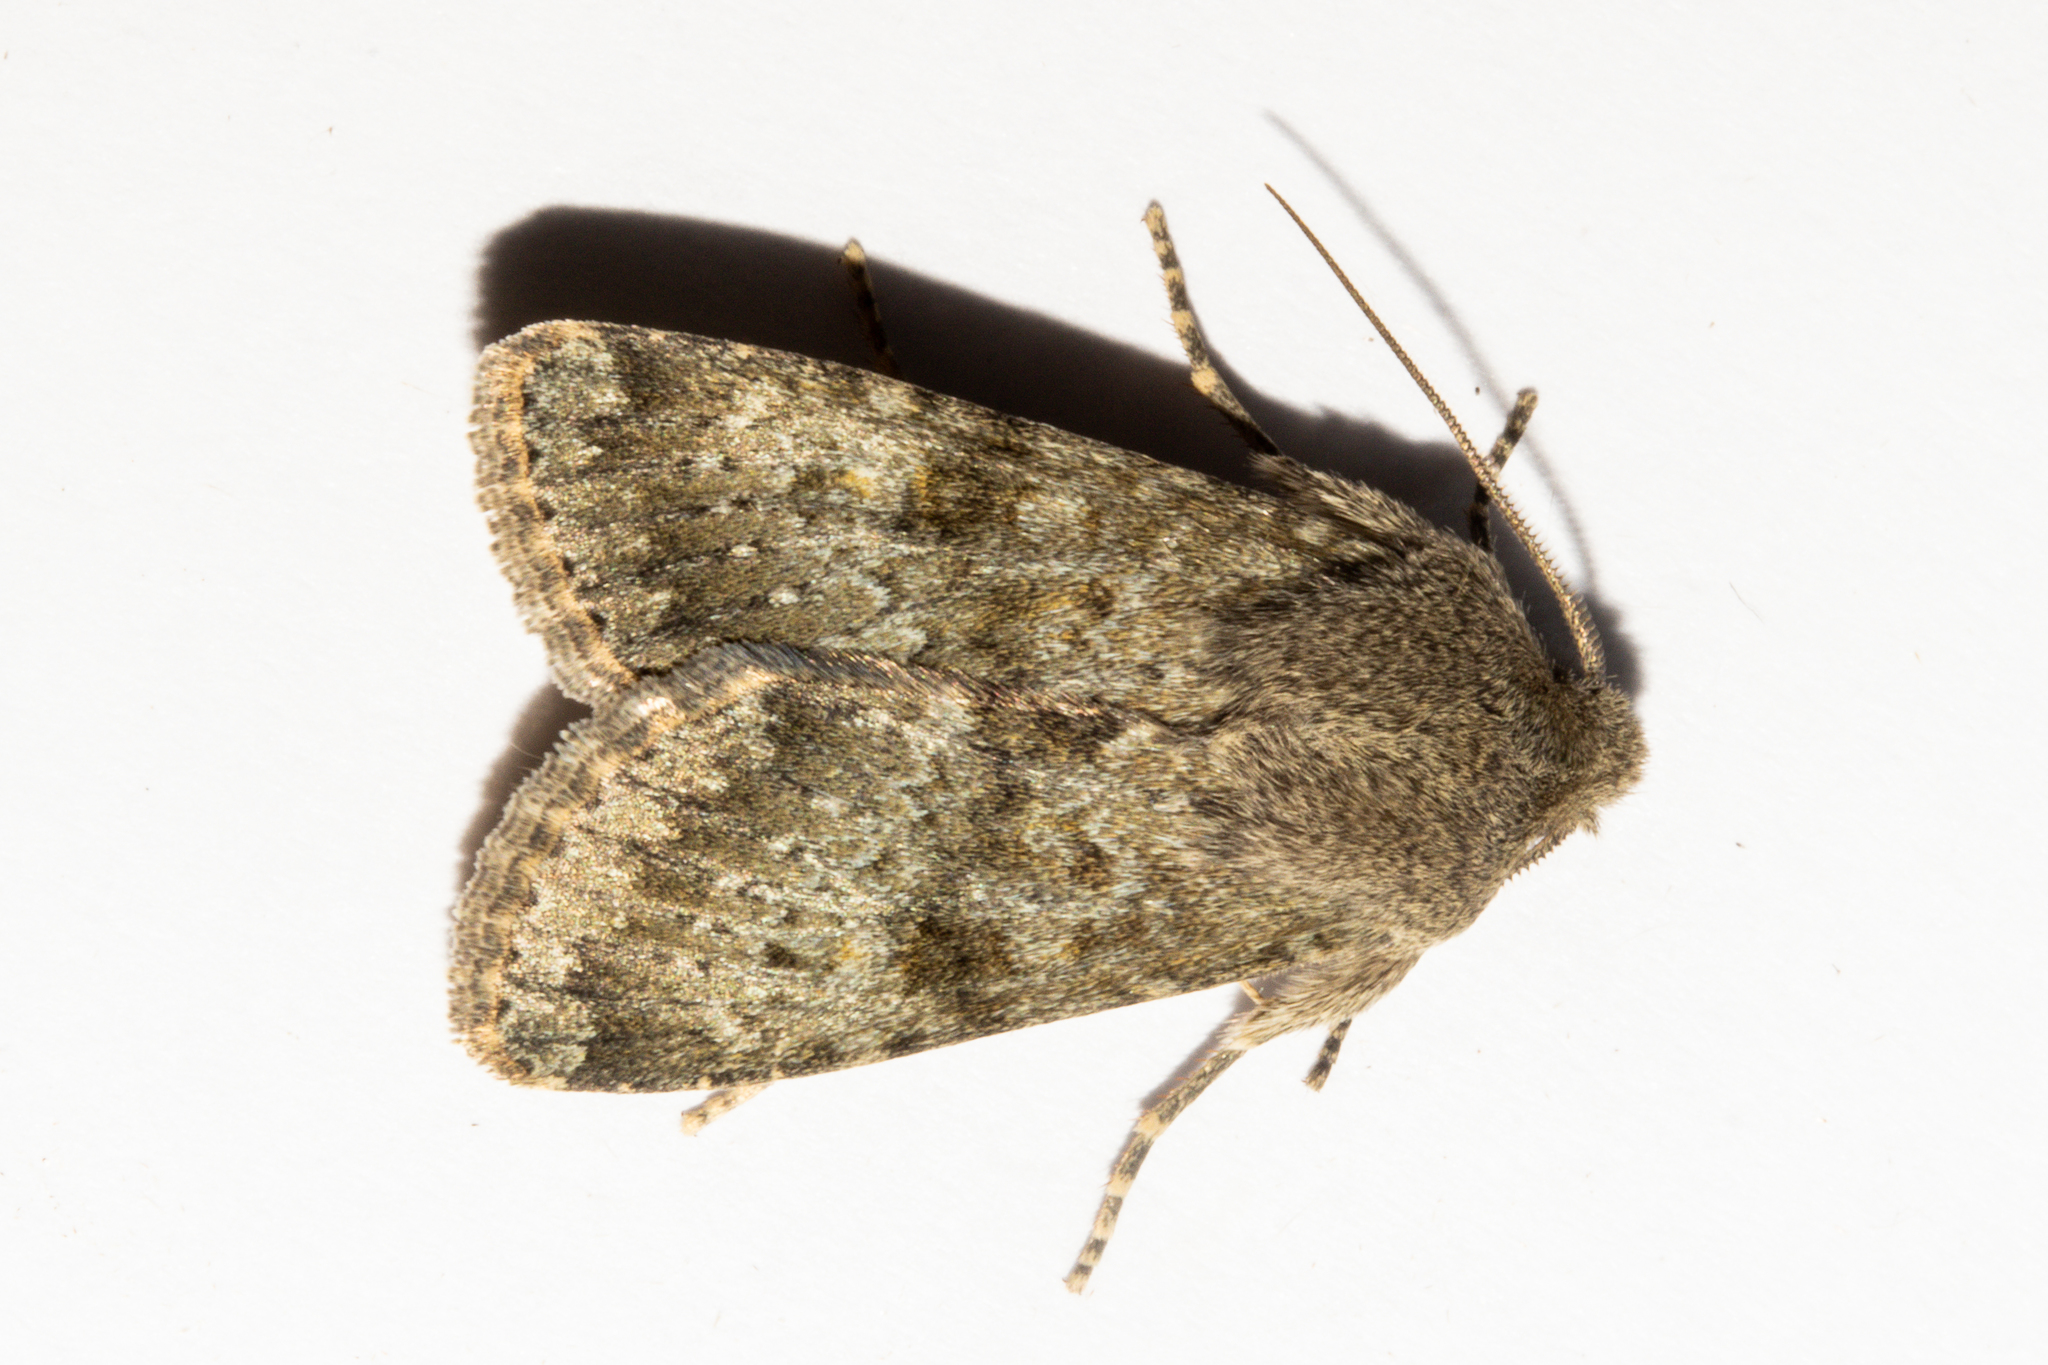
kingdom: Animalia
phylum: Arthropoda
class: Insecta
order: Lepidoptera
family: Noctuidae
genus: Ichneutica
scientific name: Ichneutica moderata
